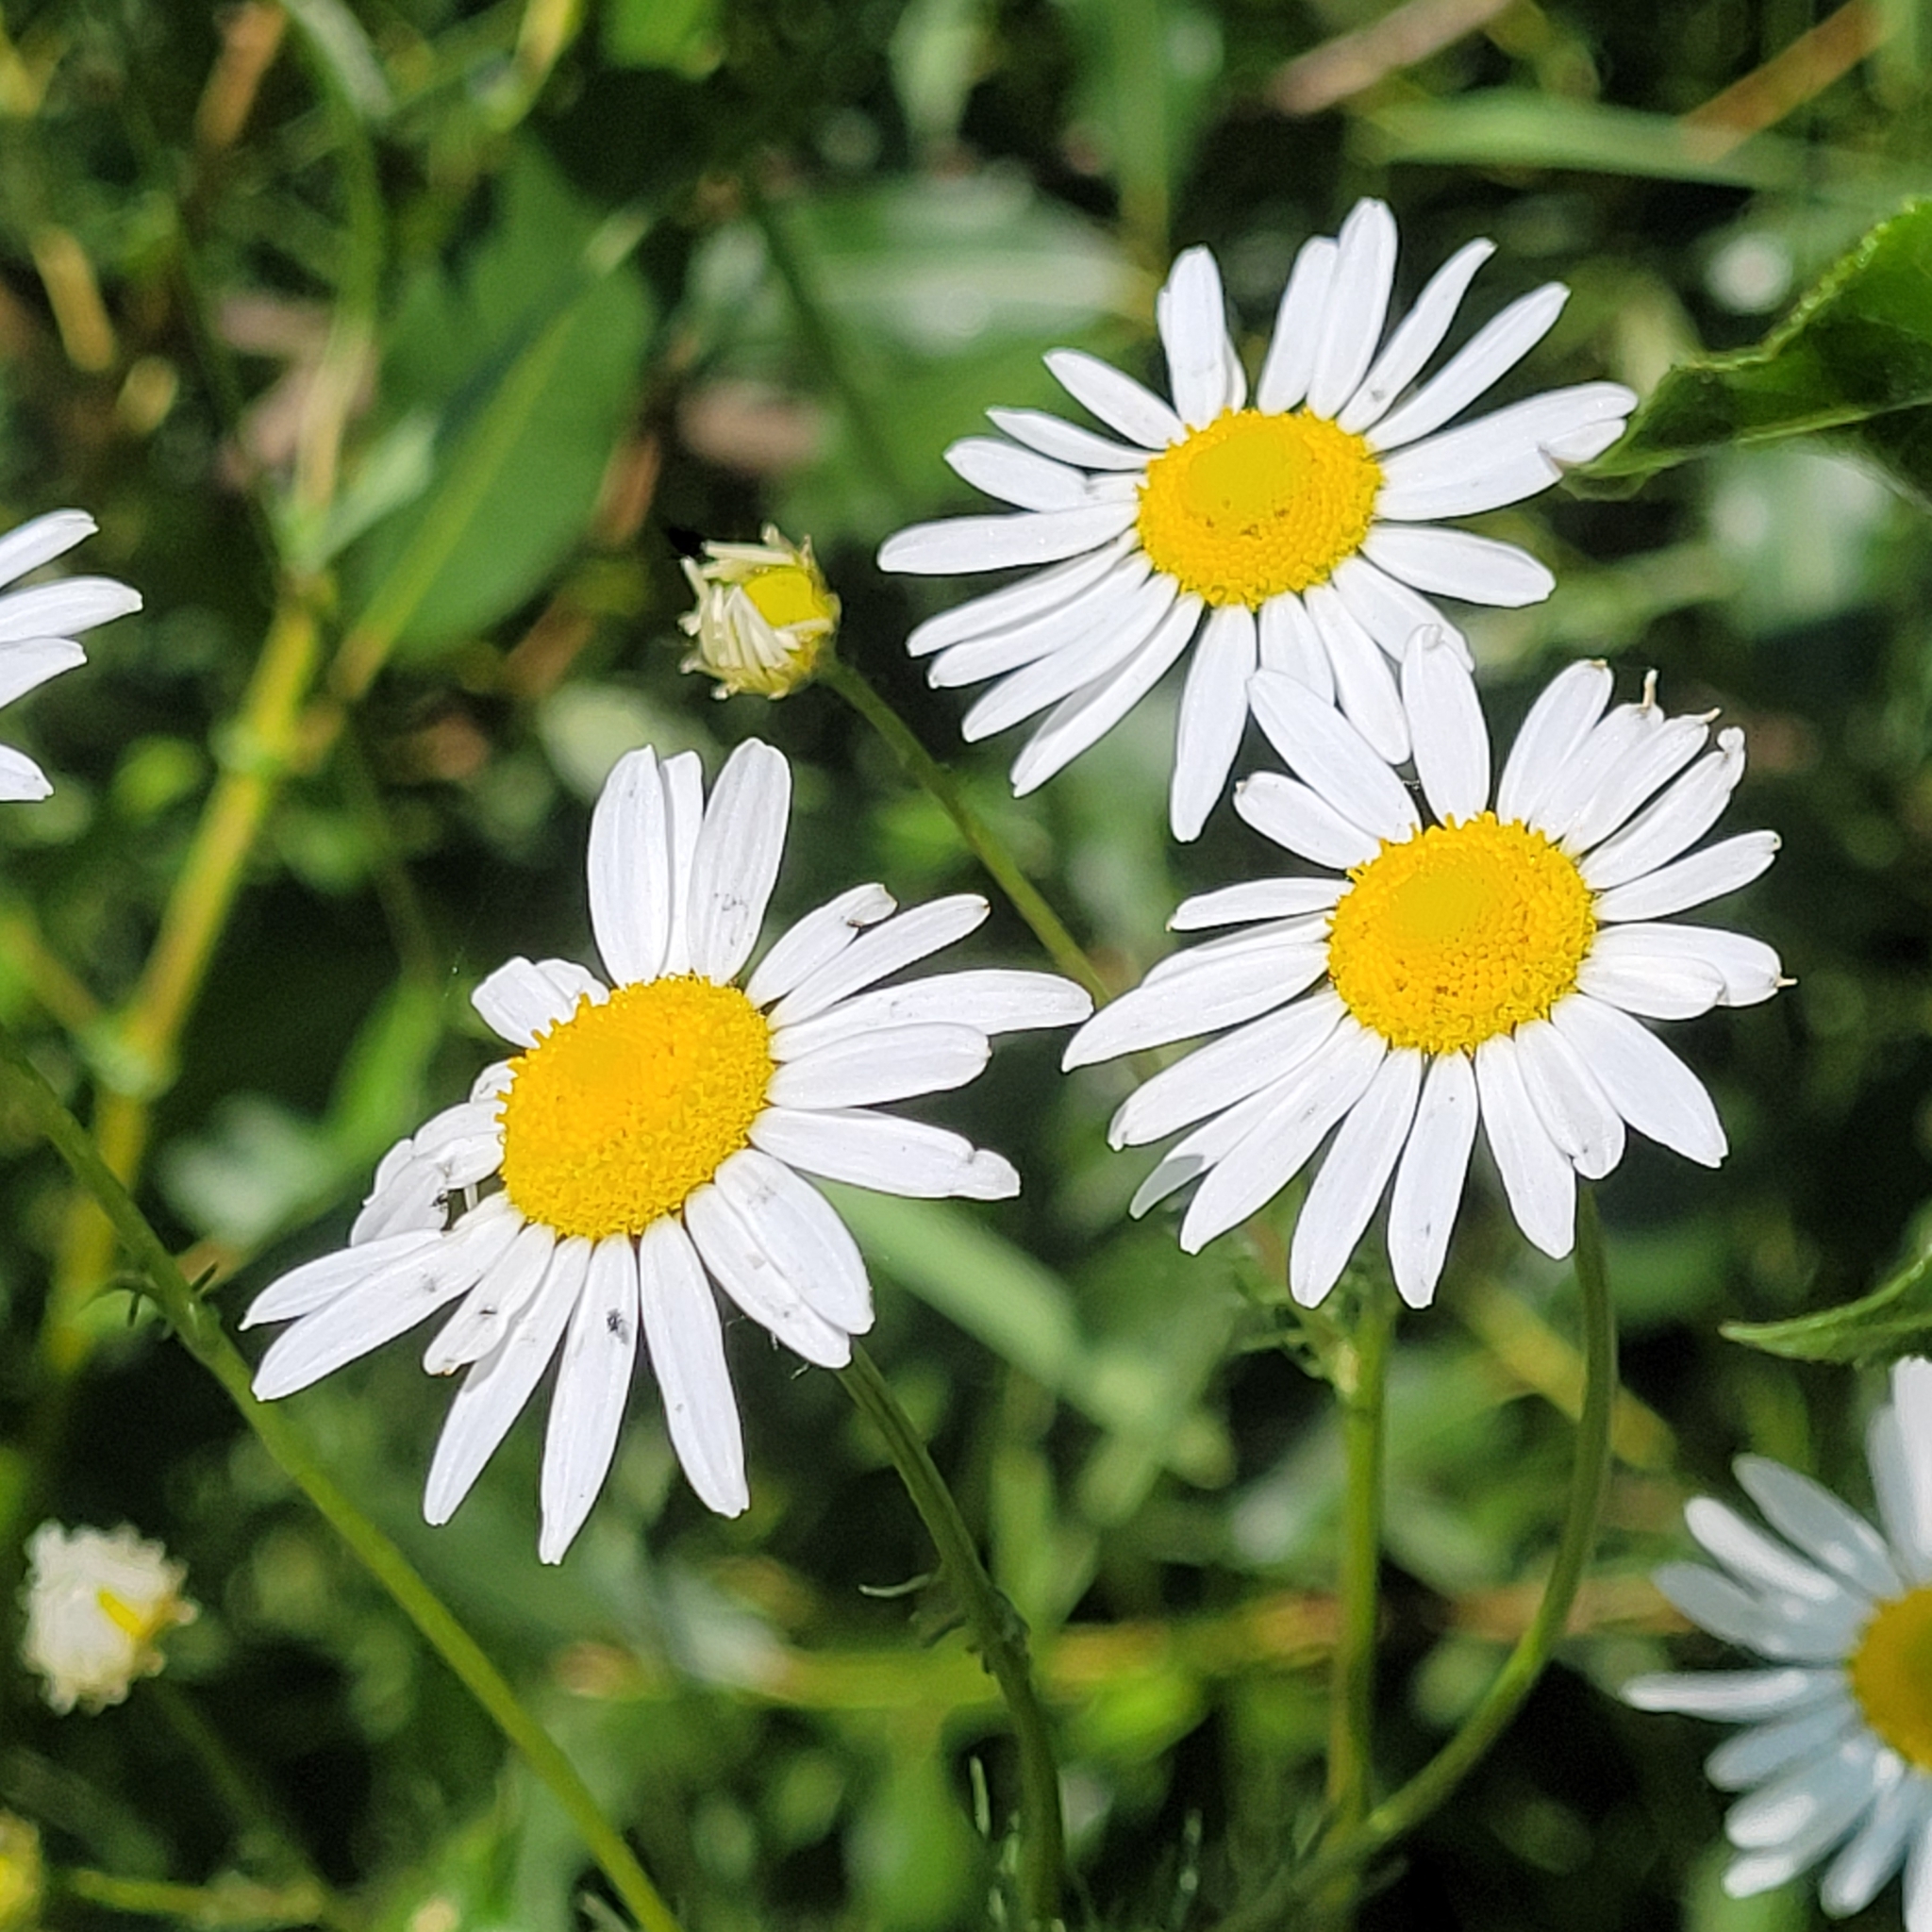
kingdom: Plantae
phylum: Tracheophyta
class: Magnoliopsida
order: Asterales
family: Asteraceae
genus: Tripleurospermum
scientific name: Tripleurospermum inodorum
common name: Scentless mayweed
